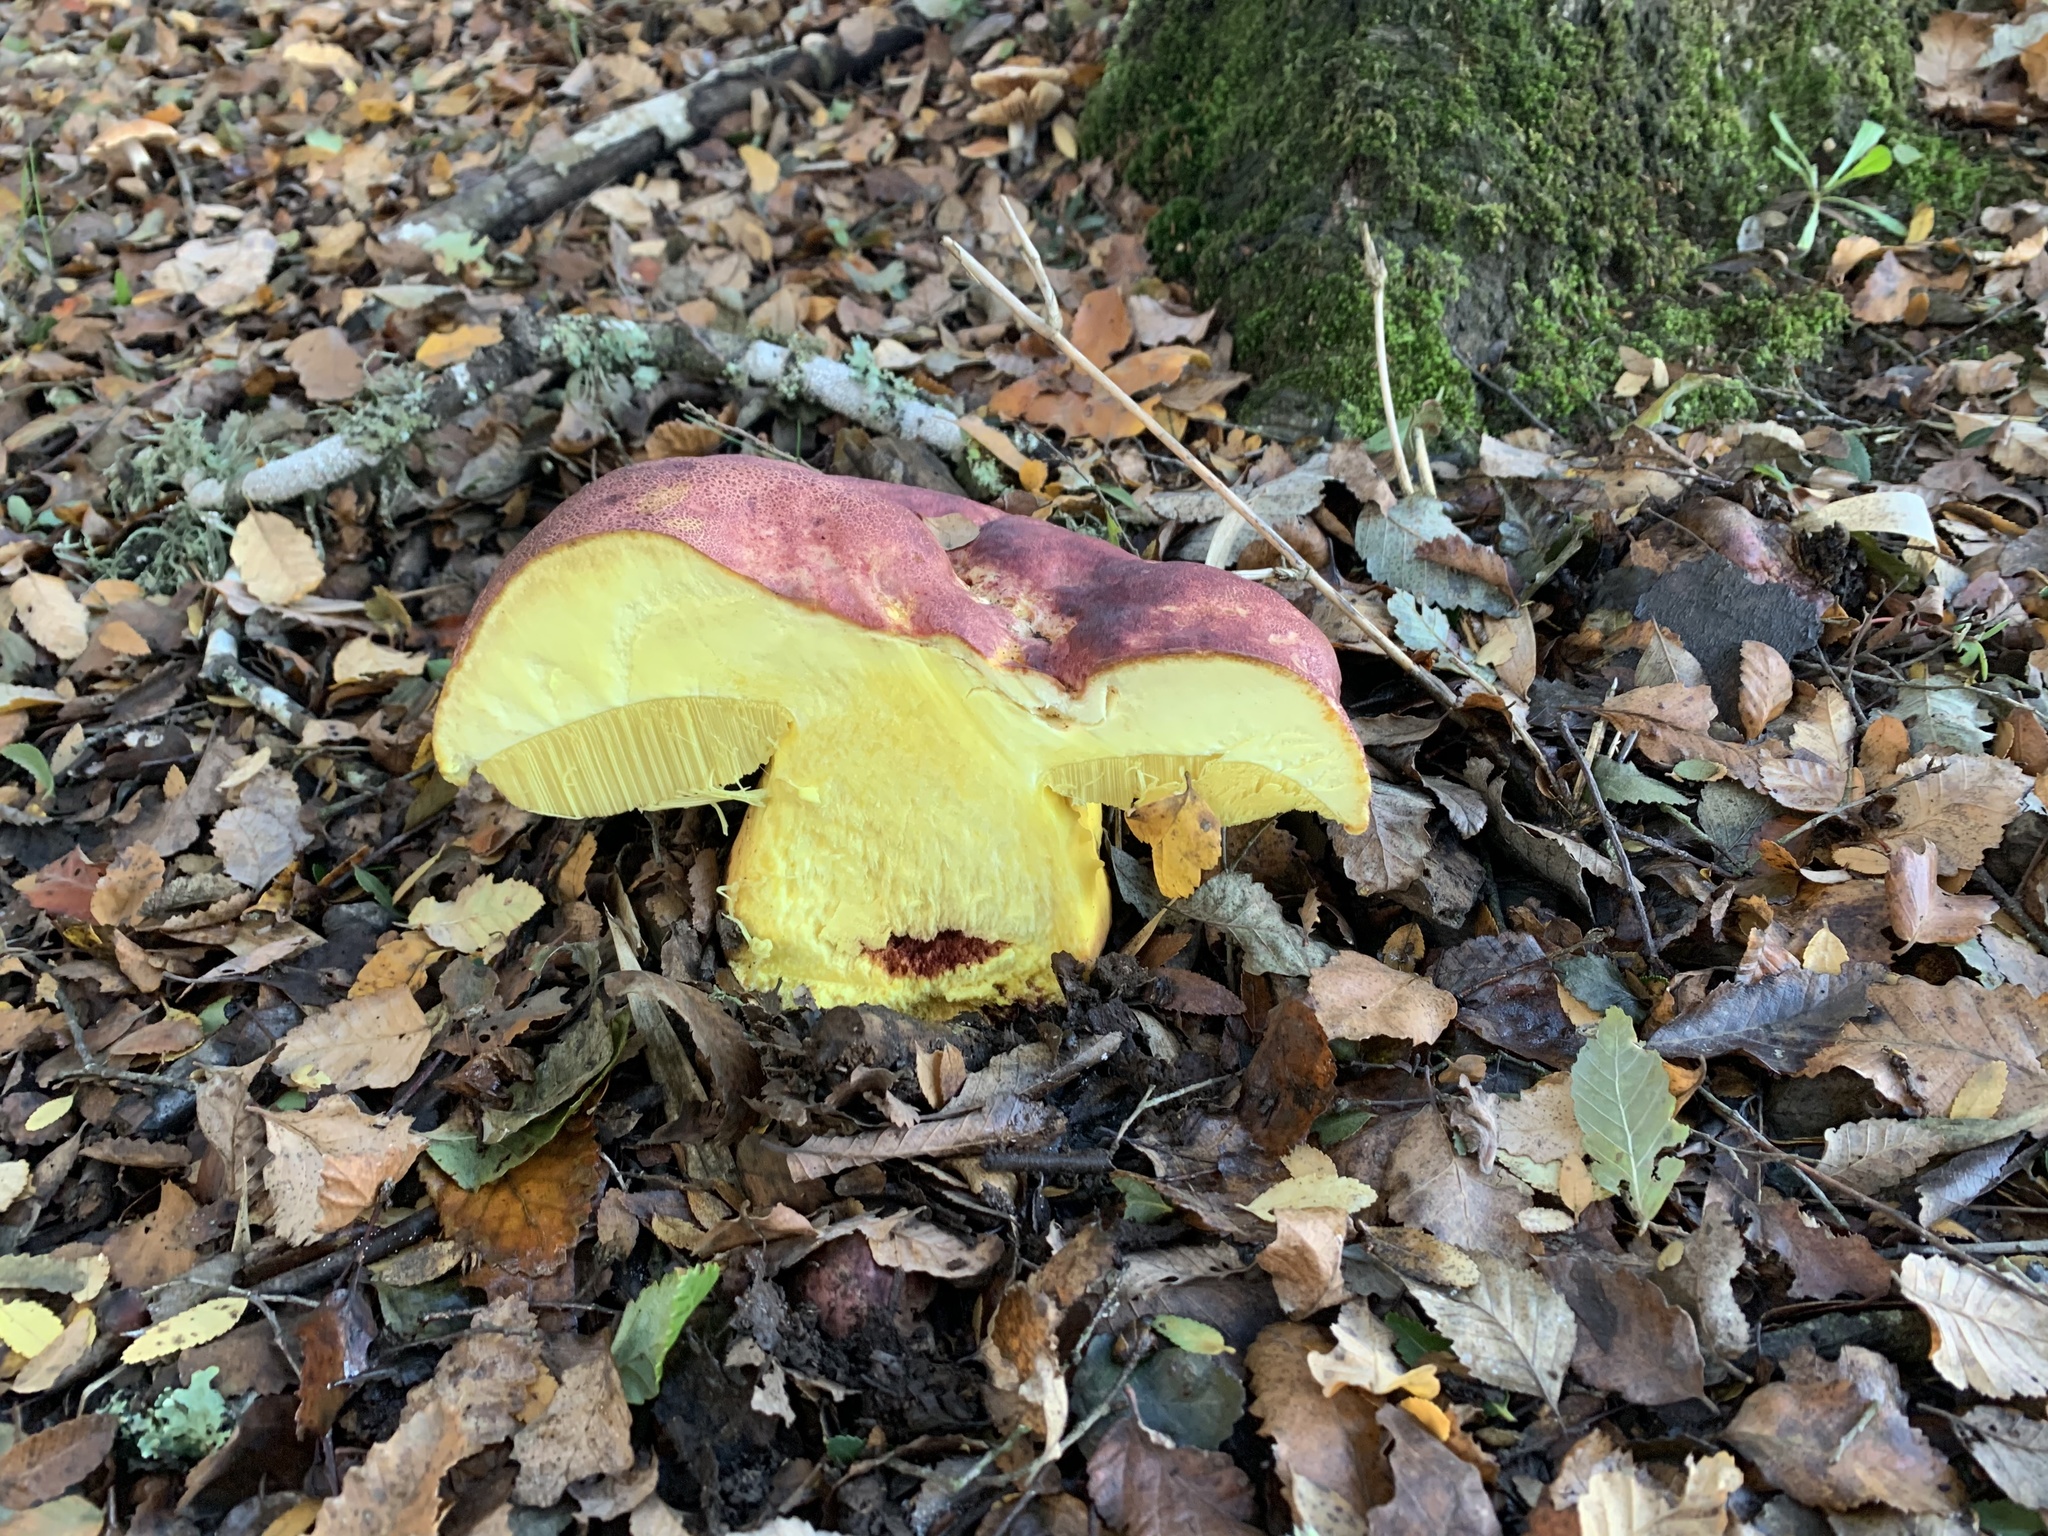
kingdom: Fungi
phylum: Basidiomycota
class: Agaricomycetes
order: Boletales
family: Boletaceae
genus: Butyriboletus
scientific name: Butyriboletus loyo
